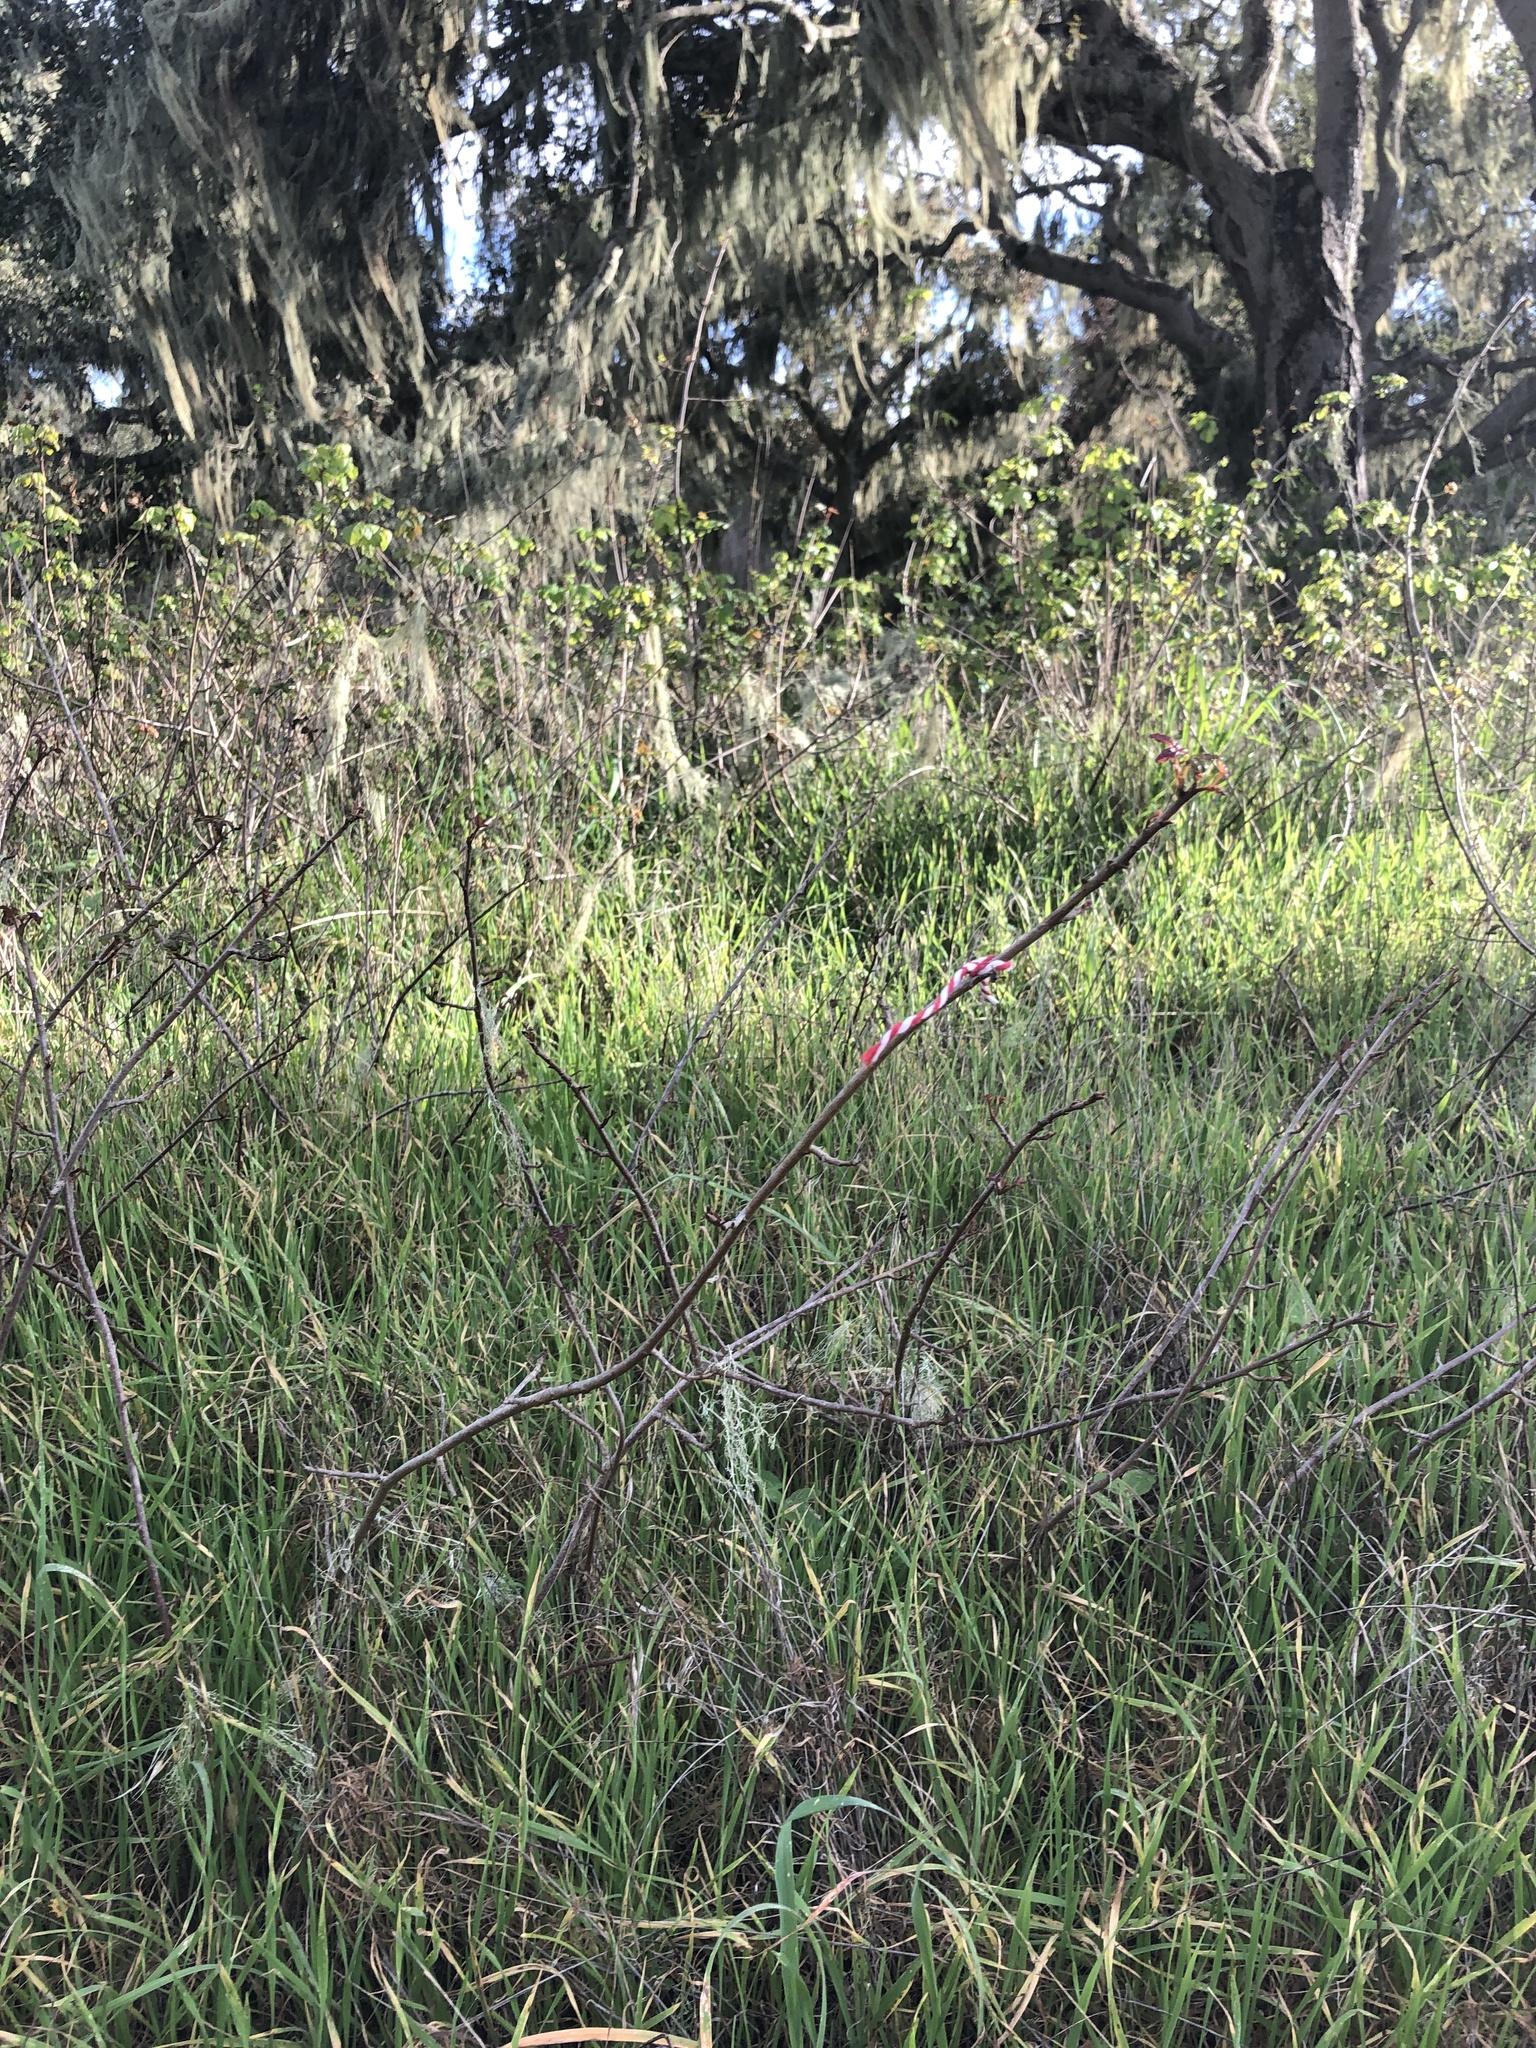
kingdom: Plantae
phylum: Tracheophyta
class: Magnoliopsida
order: Sapindales
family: Anacardiaceae
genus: Toxicodendron
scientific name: Toxicodendron diversilobum
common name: Pacific poison-oak
